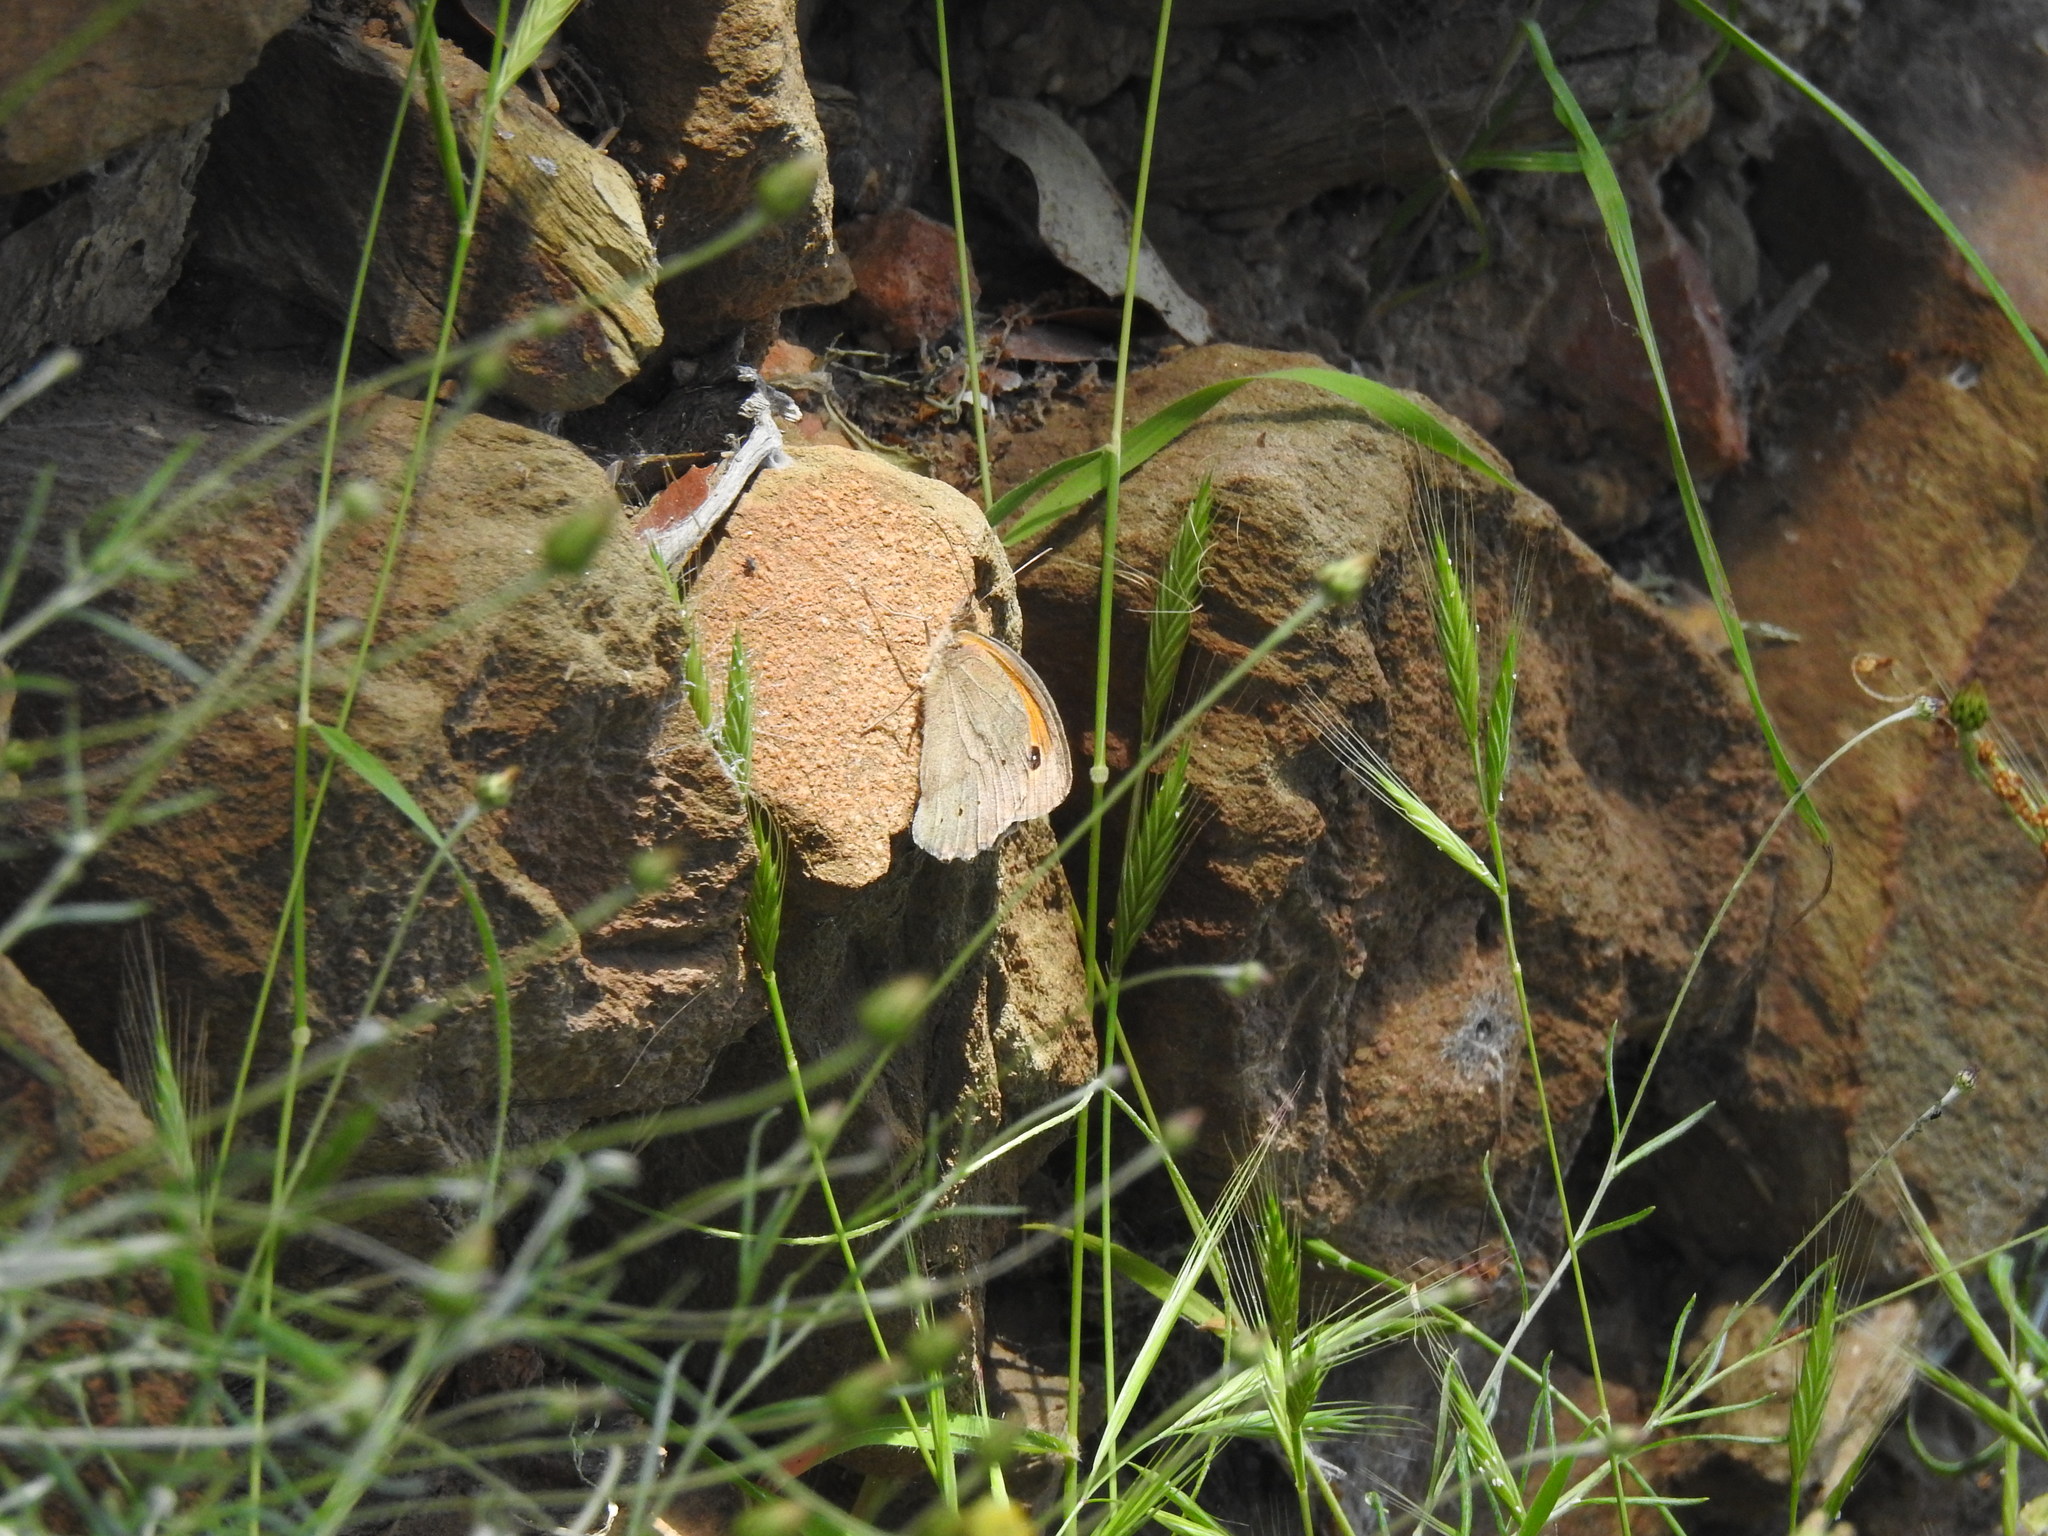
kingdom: Animalia
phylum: Arthropoda
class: Insecta
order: Lepidoptera
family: Nymphalidae
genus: Maniola
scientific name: Maniola jurtina
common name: Meadow brown
